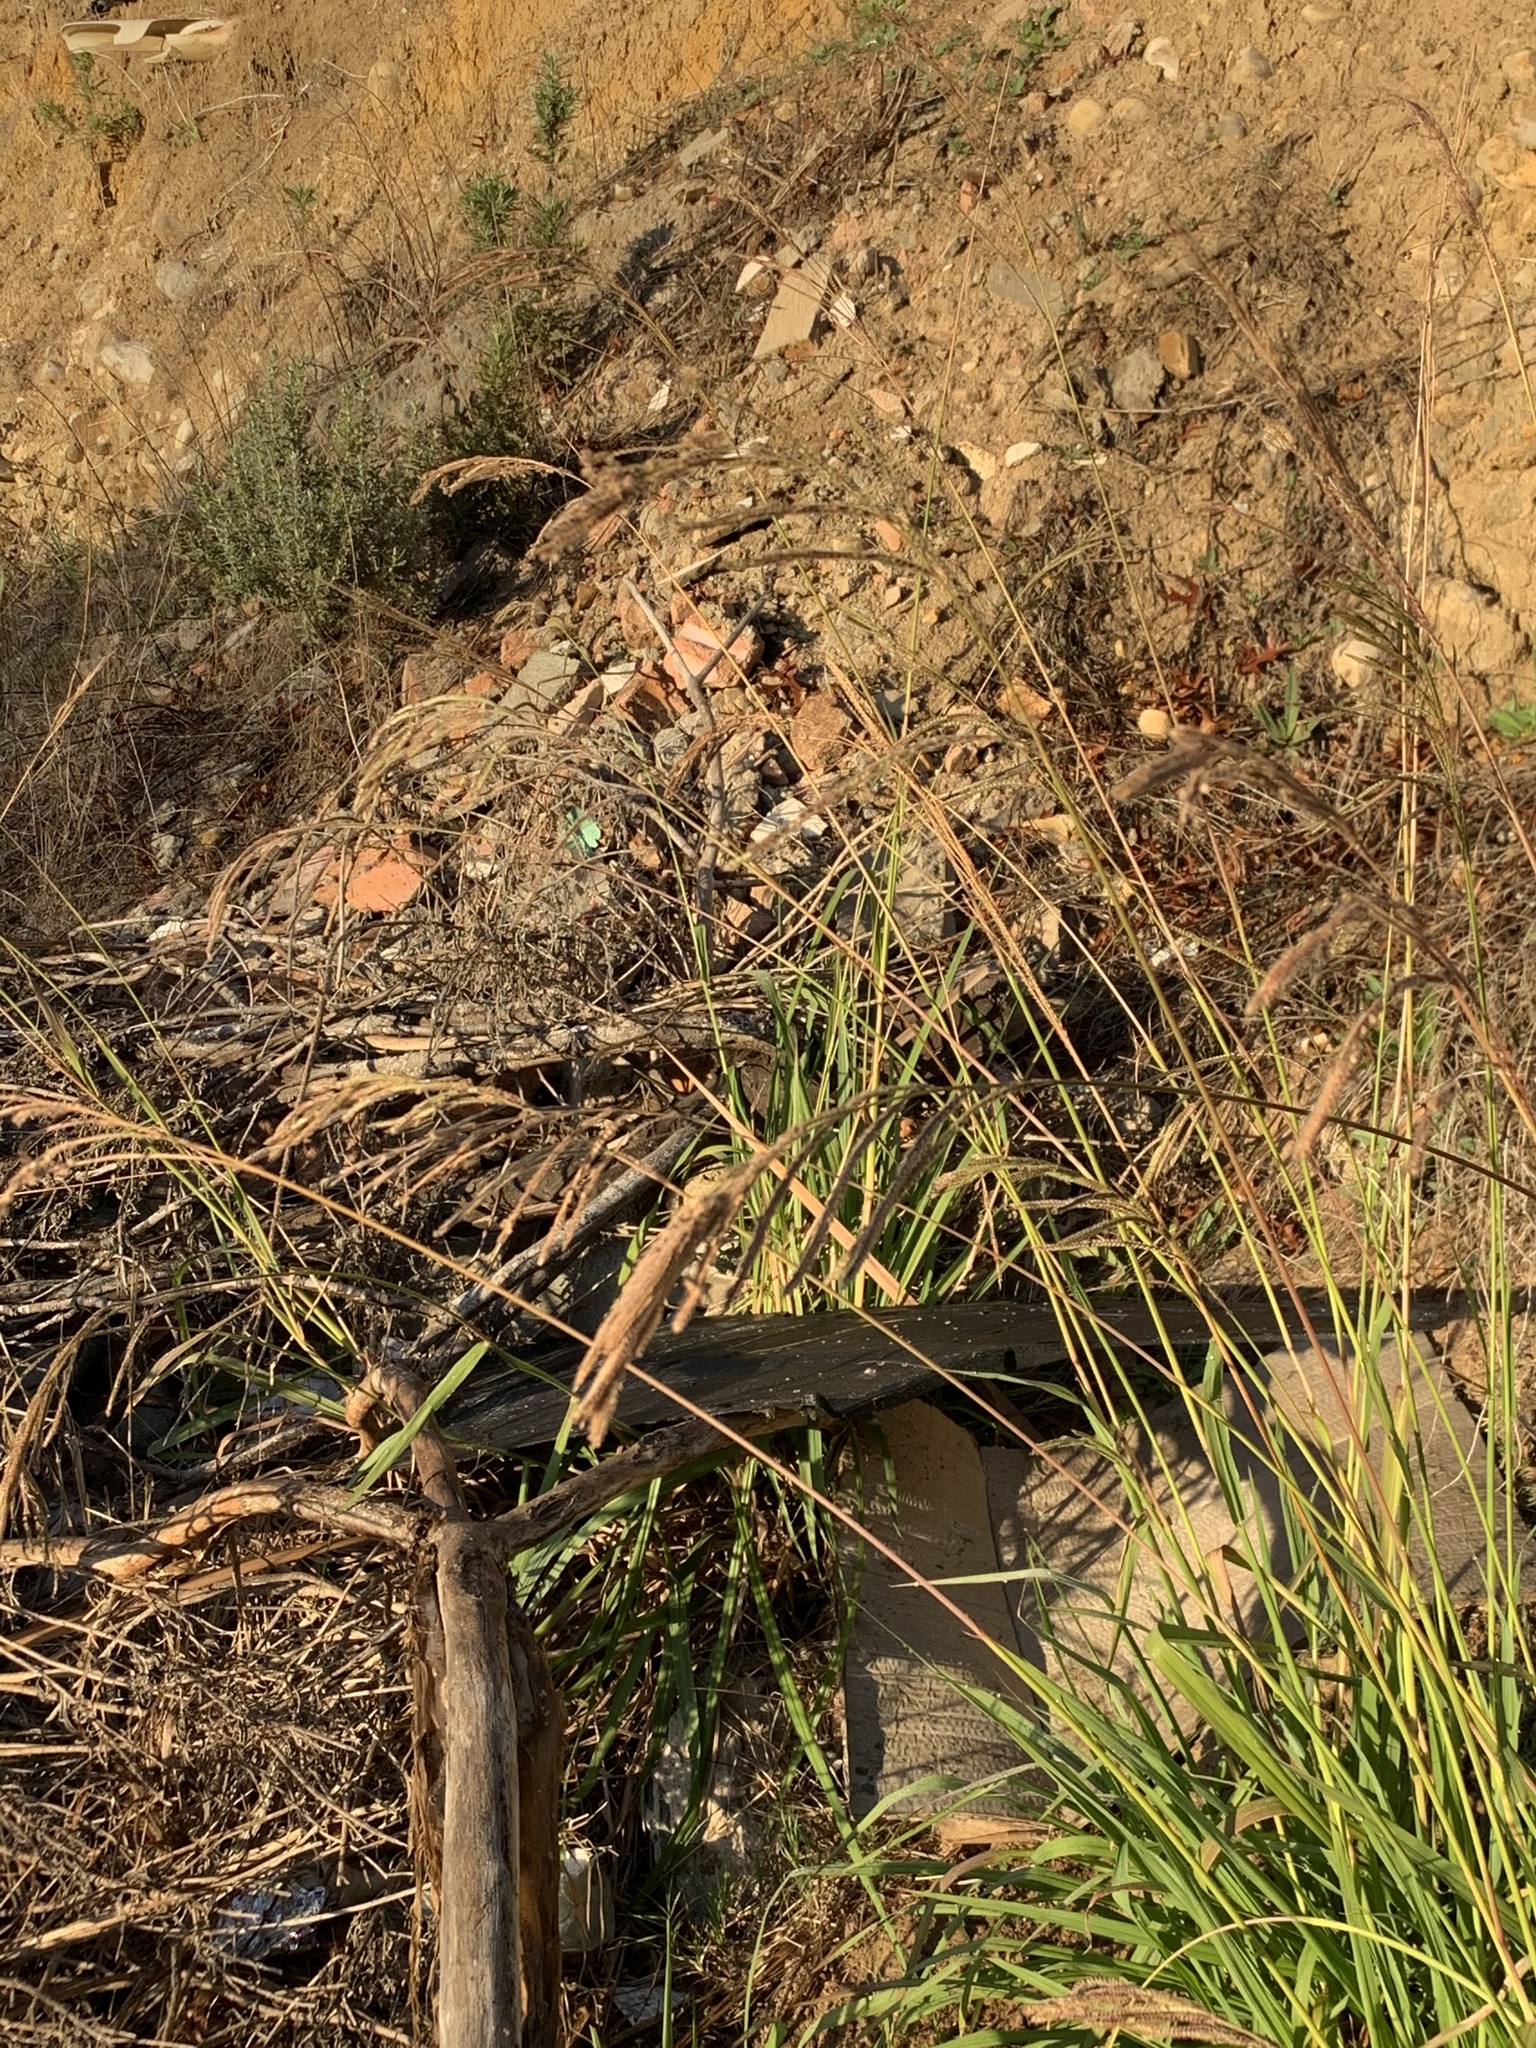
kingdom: Plantae
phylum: Tracheophyta
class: Liliopsida
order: Poales
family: Poaceae
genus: Paspalum
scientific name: Paspalum urvillei
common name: Vasey's grass
